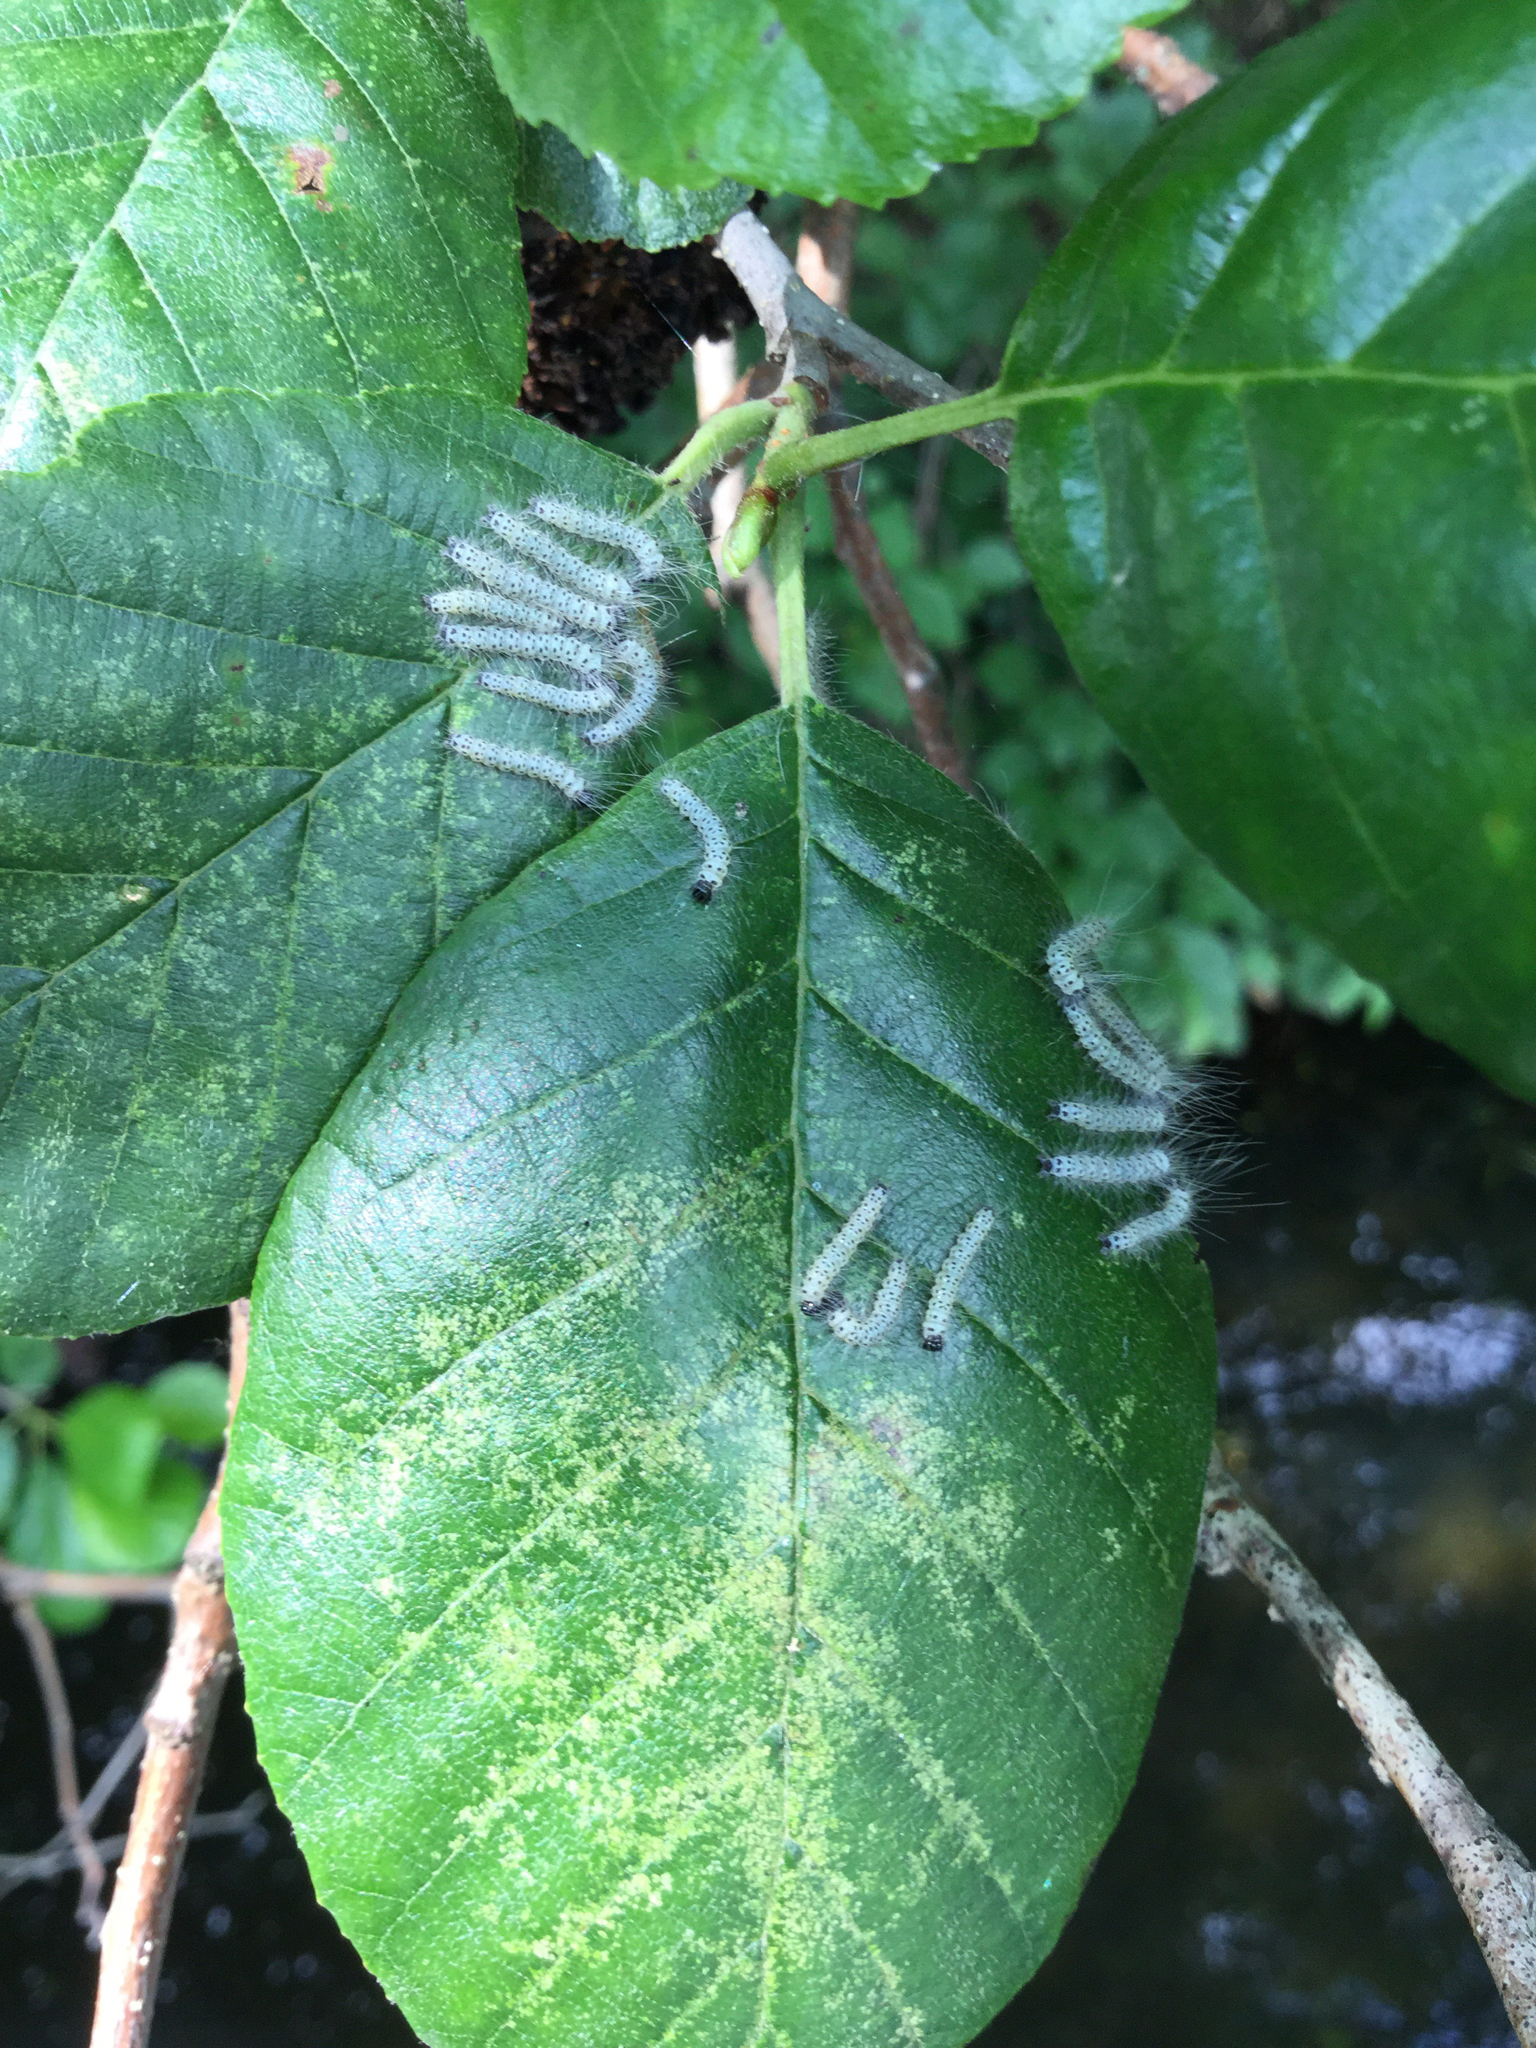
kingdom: Animalia
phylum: Arthropoda
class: Insecta
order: Lepidoptera
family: Erebidae
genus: Lophocampa
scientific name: Lophocampa caryae
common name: Hickory tussock moth
